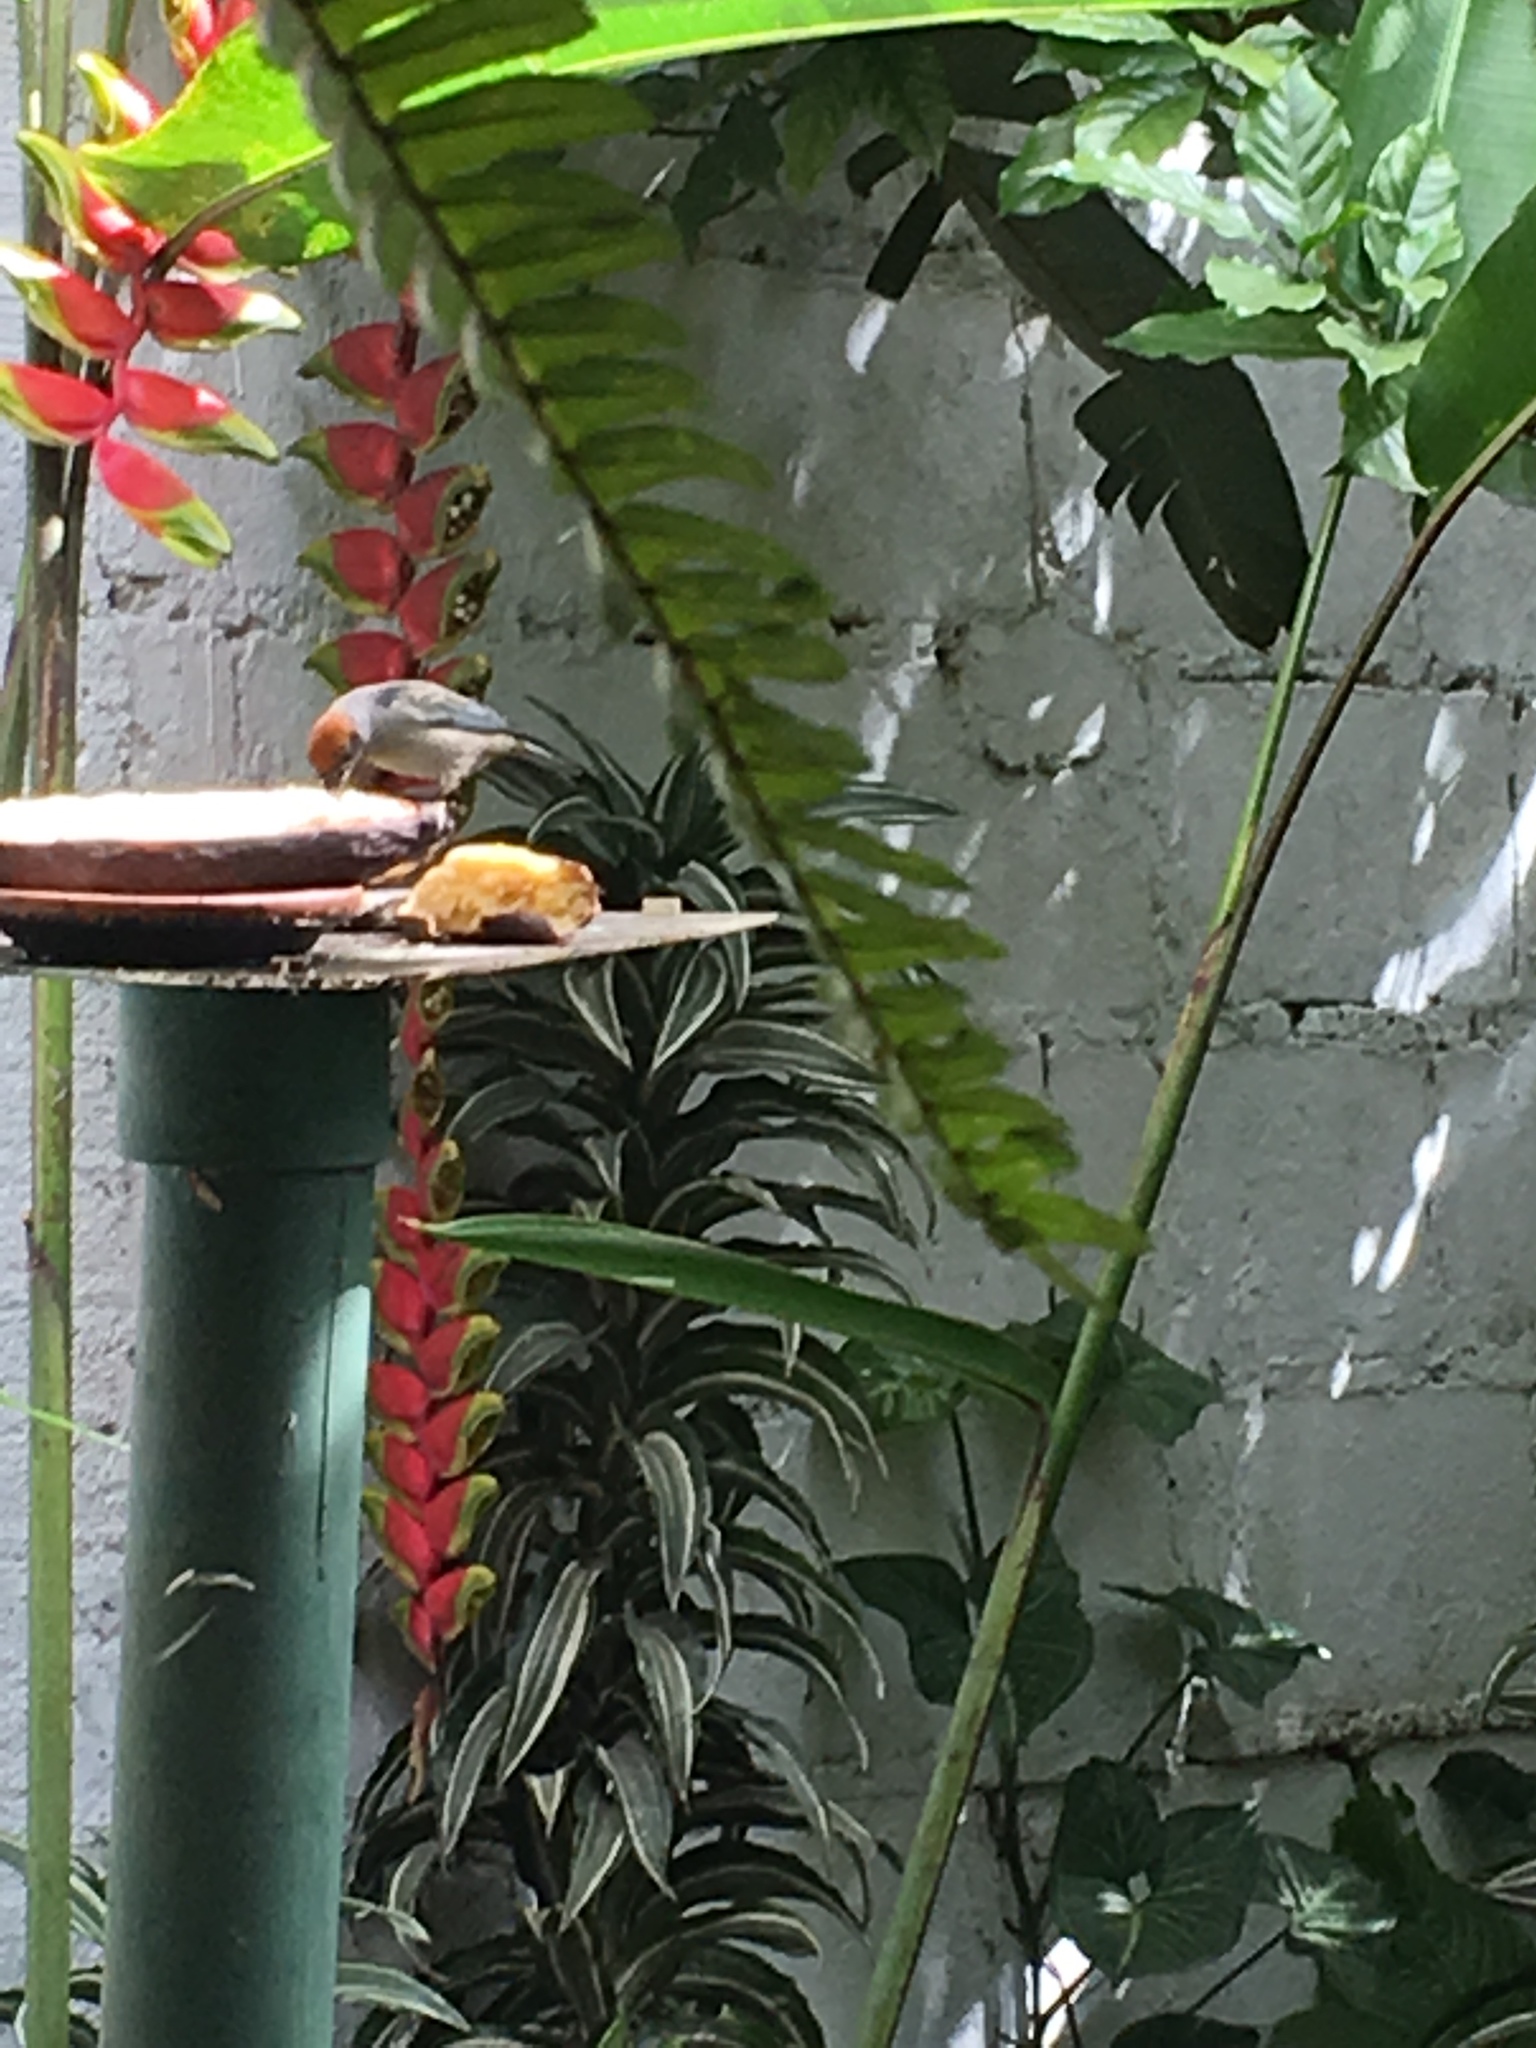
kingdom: Animalia
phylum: Chordata
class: Aves
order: Passeriformes
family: Thraupidae
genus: Stilpnia
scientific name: Stilpnia vitriolina
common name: Scrub tanager
